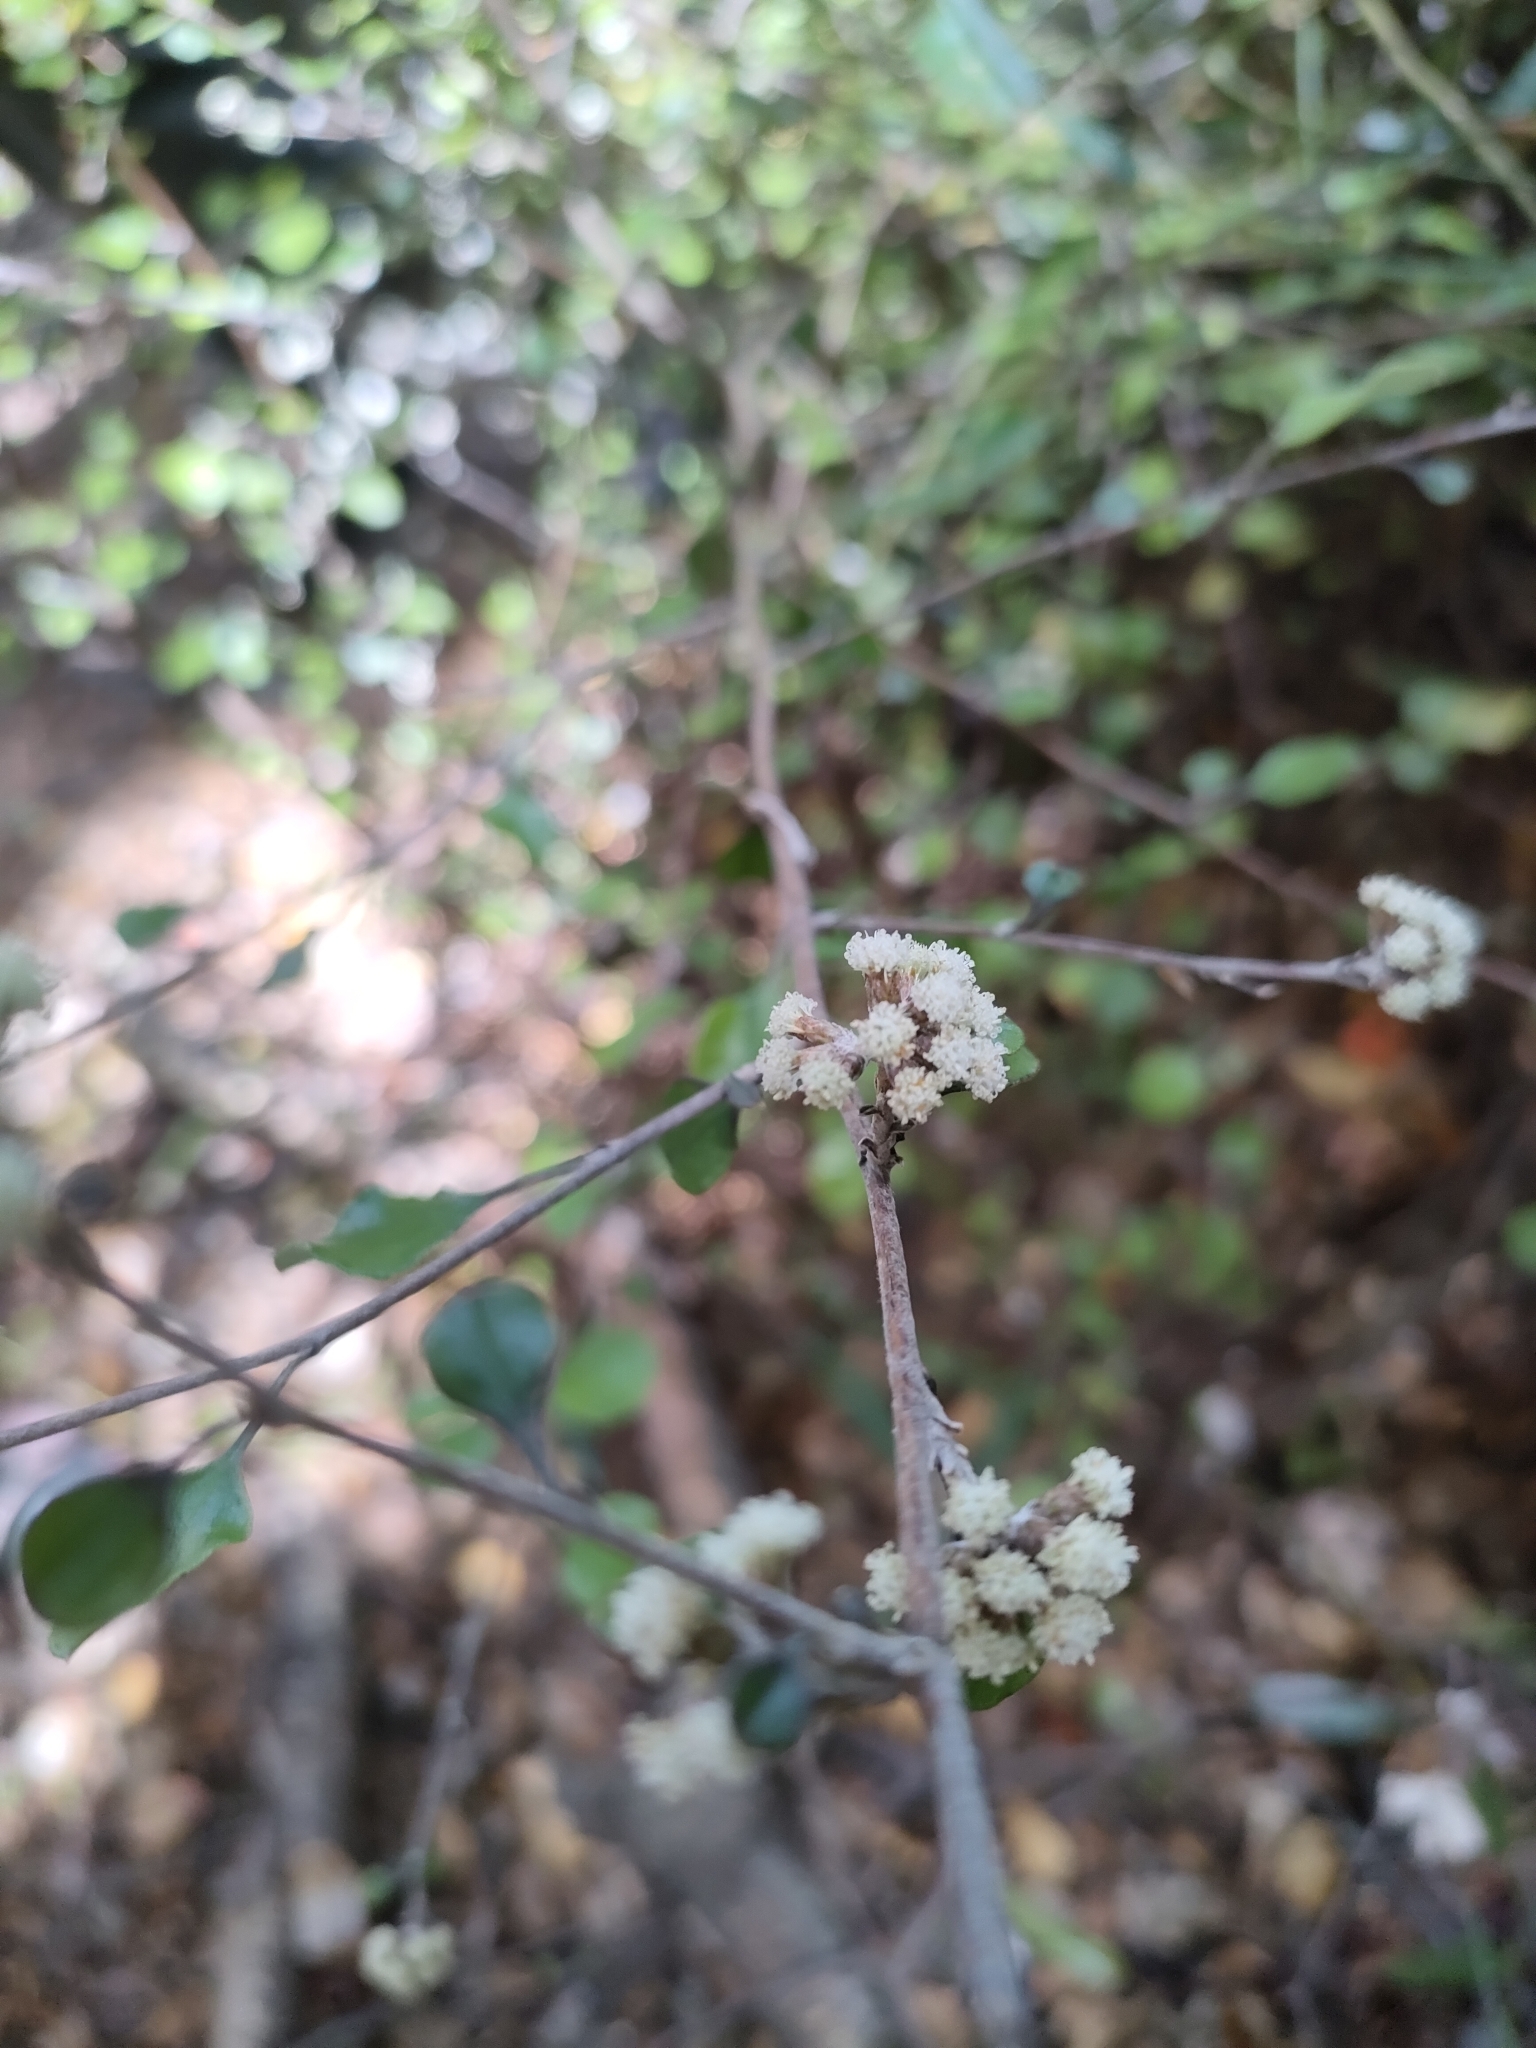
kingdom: Plantae
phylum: Tracheophyta
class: Magnoliopsida
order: Asterales
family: Asteraceae
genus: Ozothamnus
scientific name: Ozothamnus glomeratus
